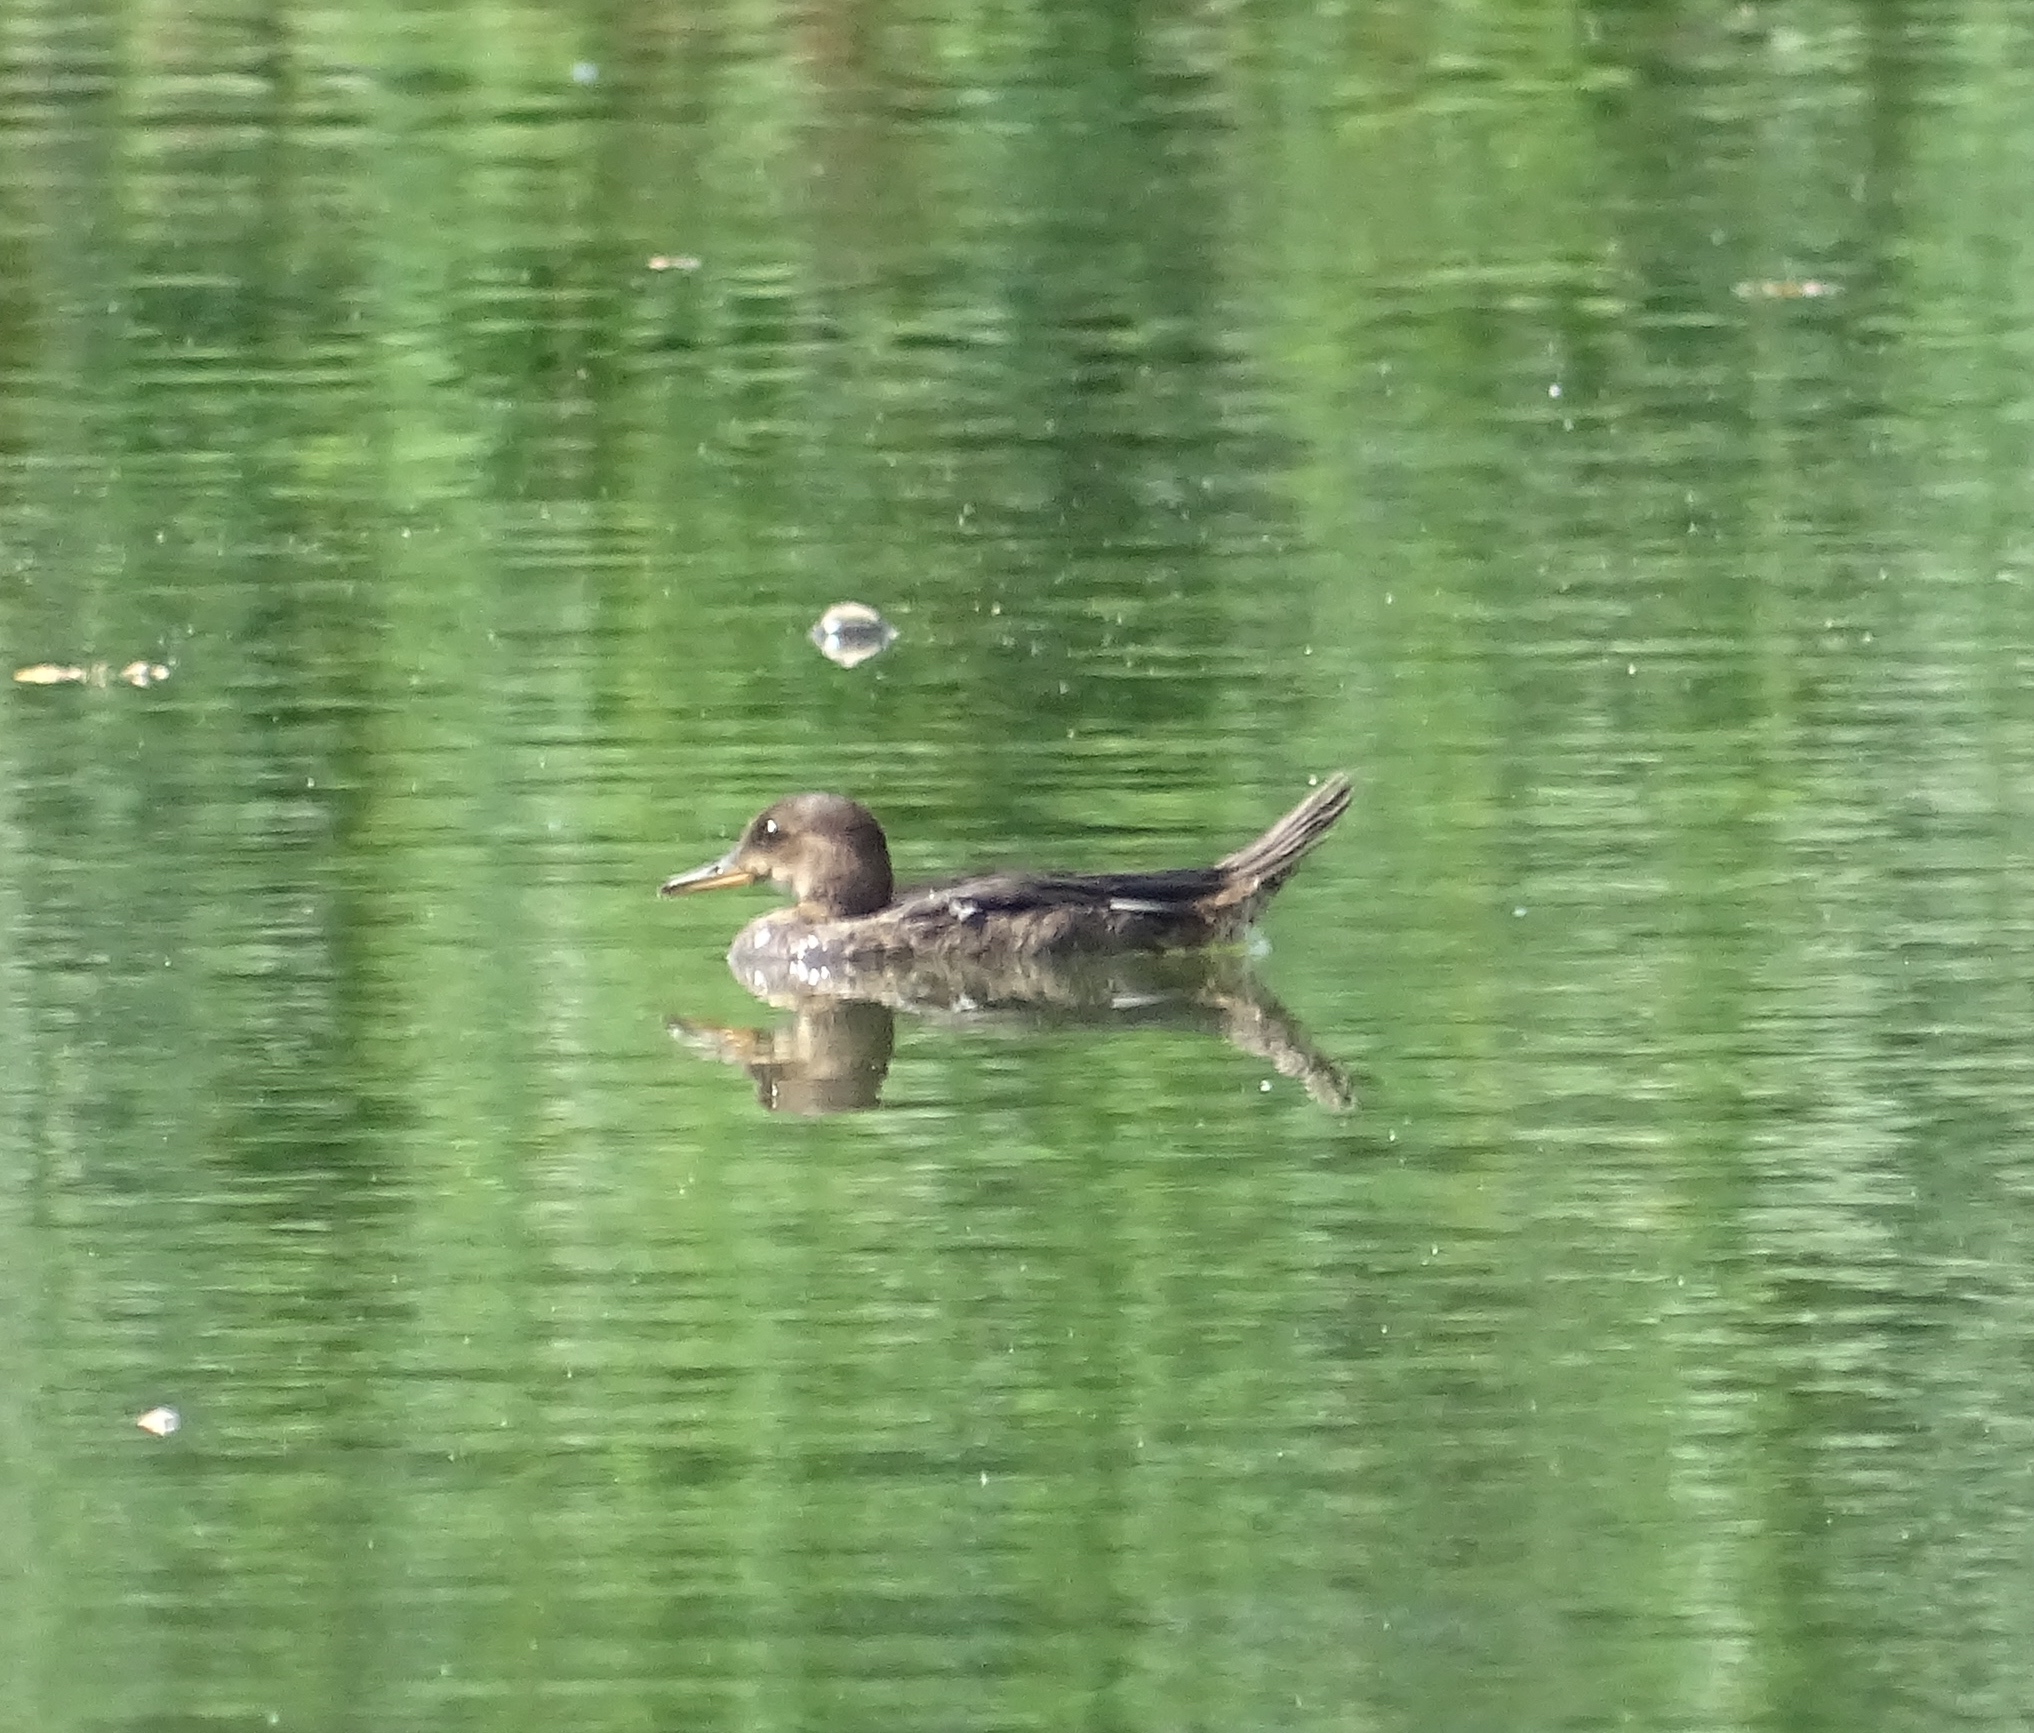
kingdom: Animalia
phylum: Chordata
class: Aves
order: Anseriformes
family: Anatidae
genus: Lophodytes
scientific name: Lophodytes cucullatus
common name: Hooded merganser
